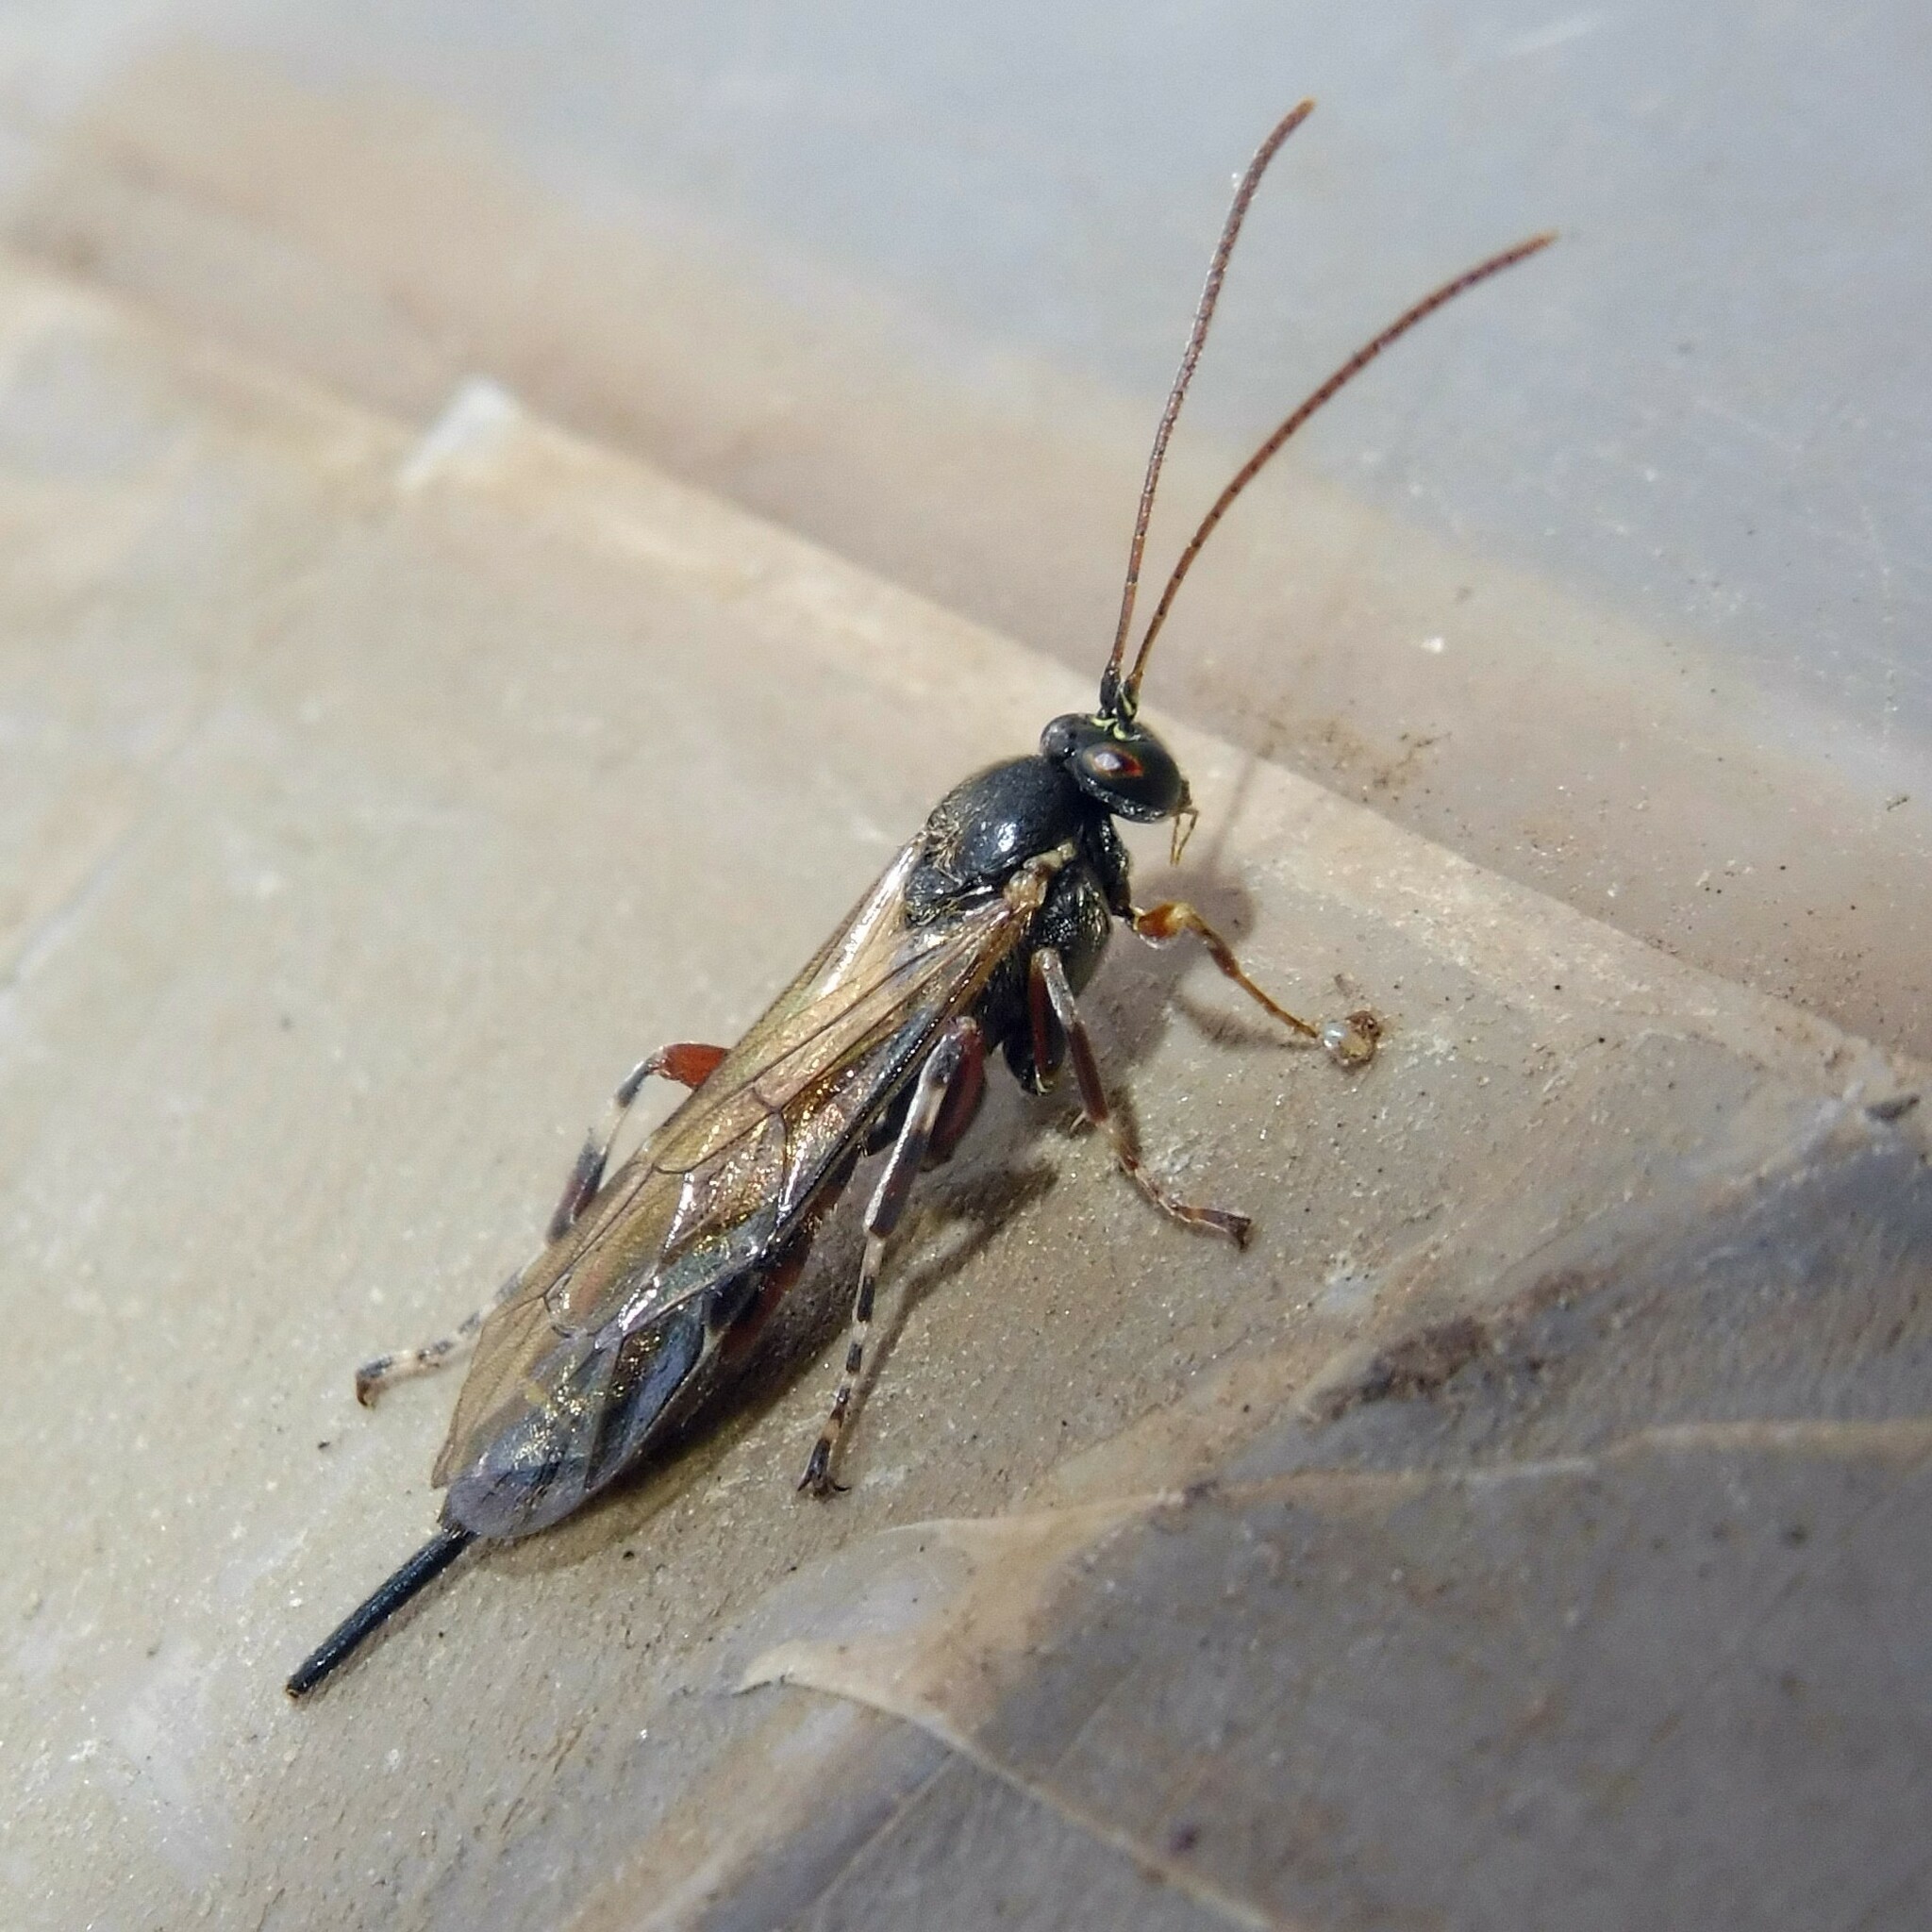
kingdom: Animalia
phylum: Arthropoda
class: Insecta
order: Hymenoptera
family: Ichneumonidae
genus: Itoplectis
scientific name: Itoplectis maculator
